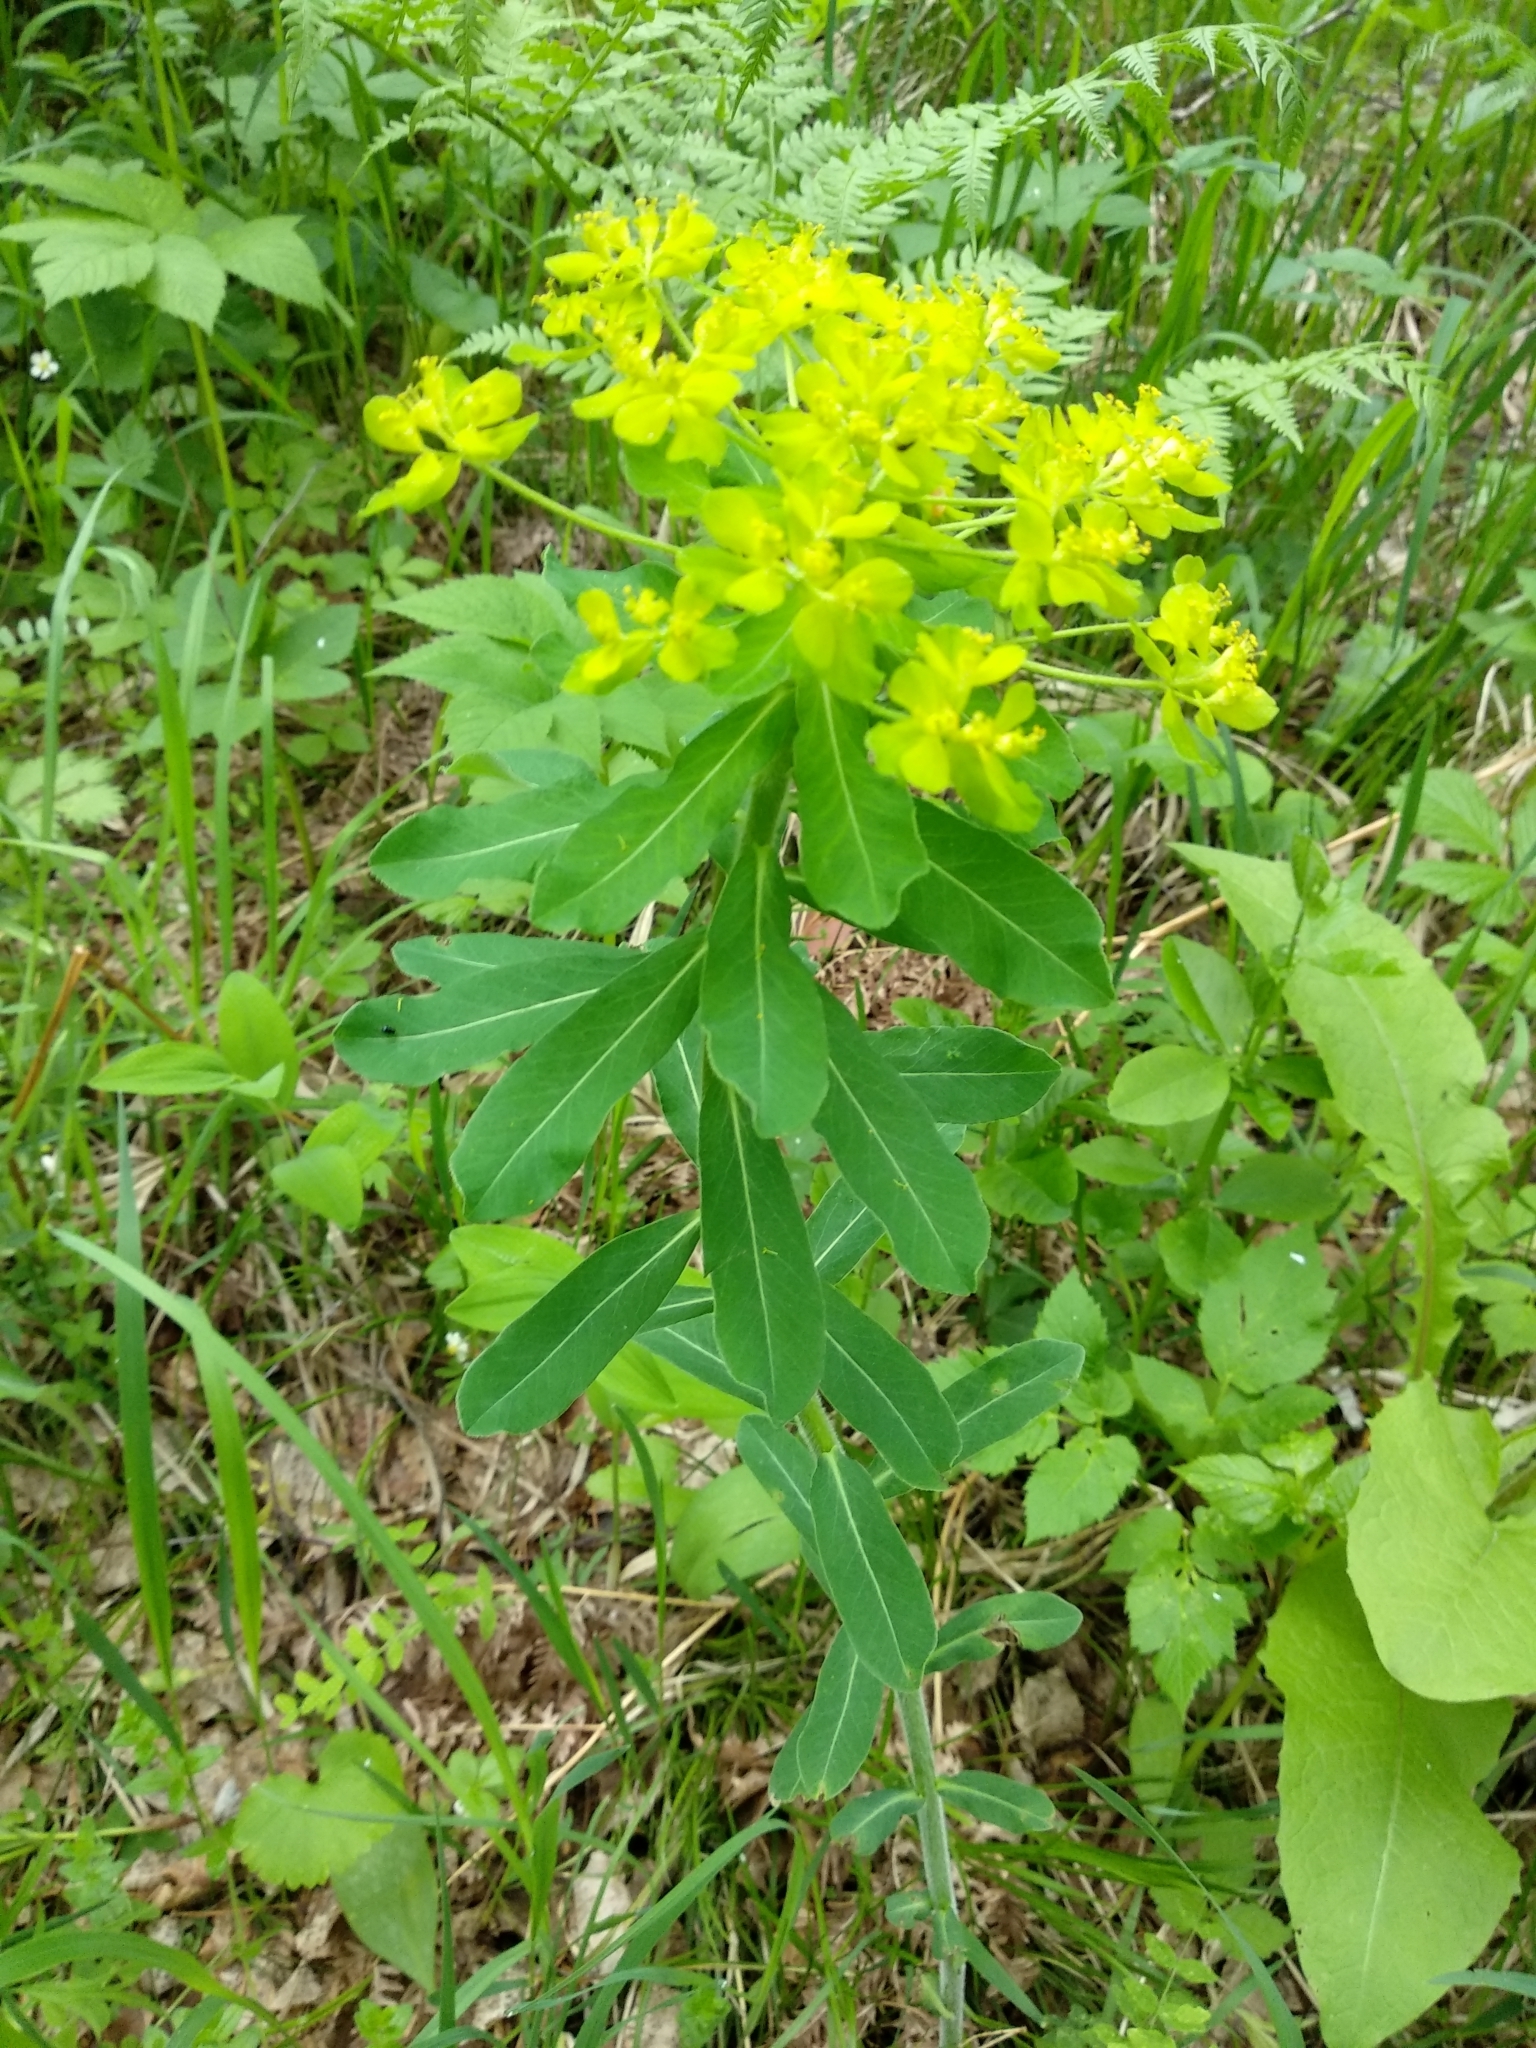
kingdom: Plantae
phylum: Tracheophyta
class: Magnoliopsida
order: Malpighiales
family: Euphorbiaceae
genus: Euphorbia
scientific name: Euphorbia pilosa
